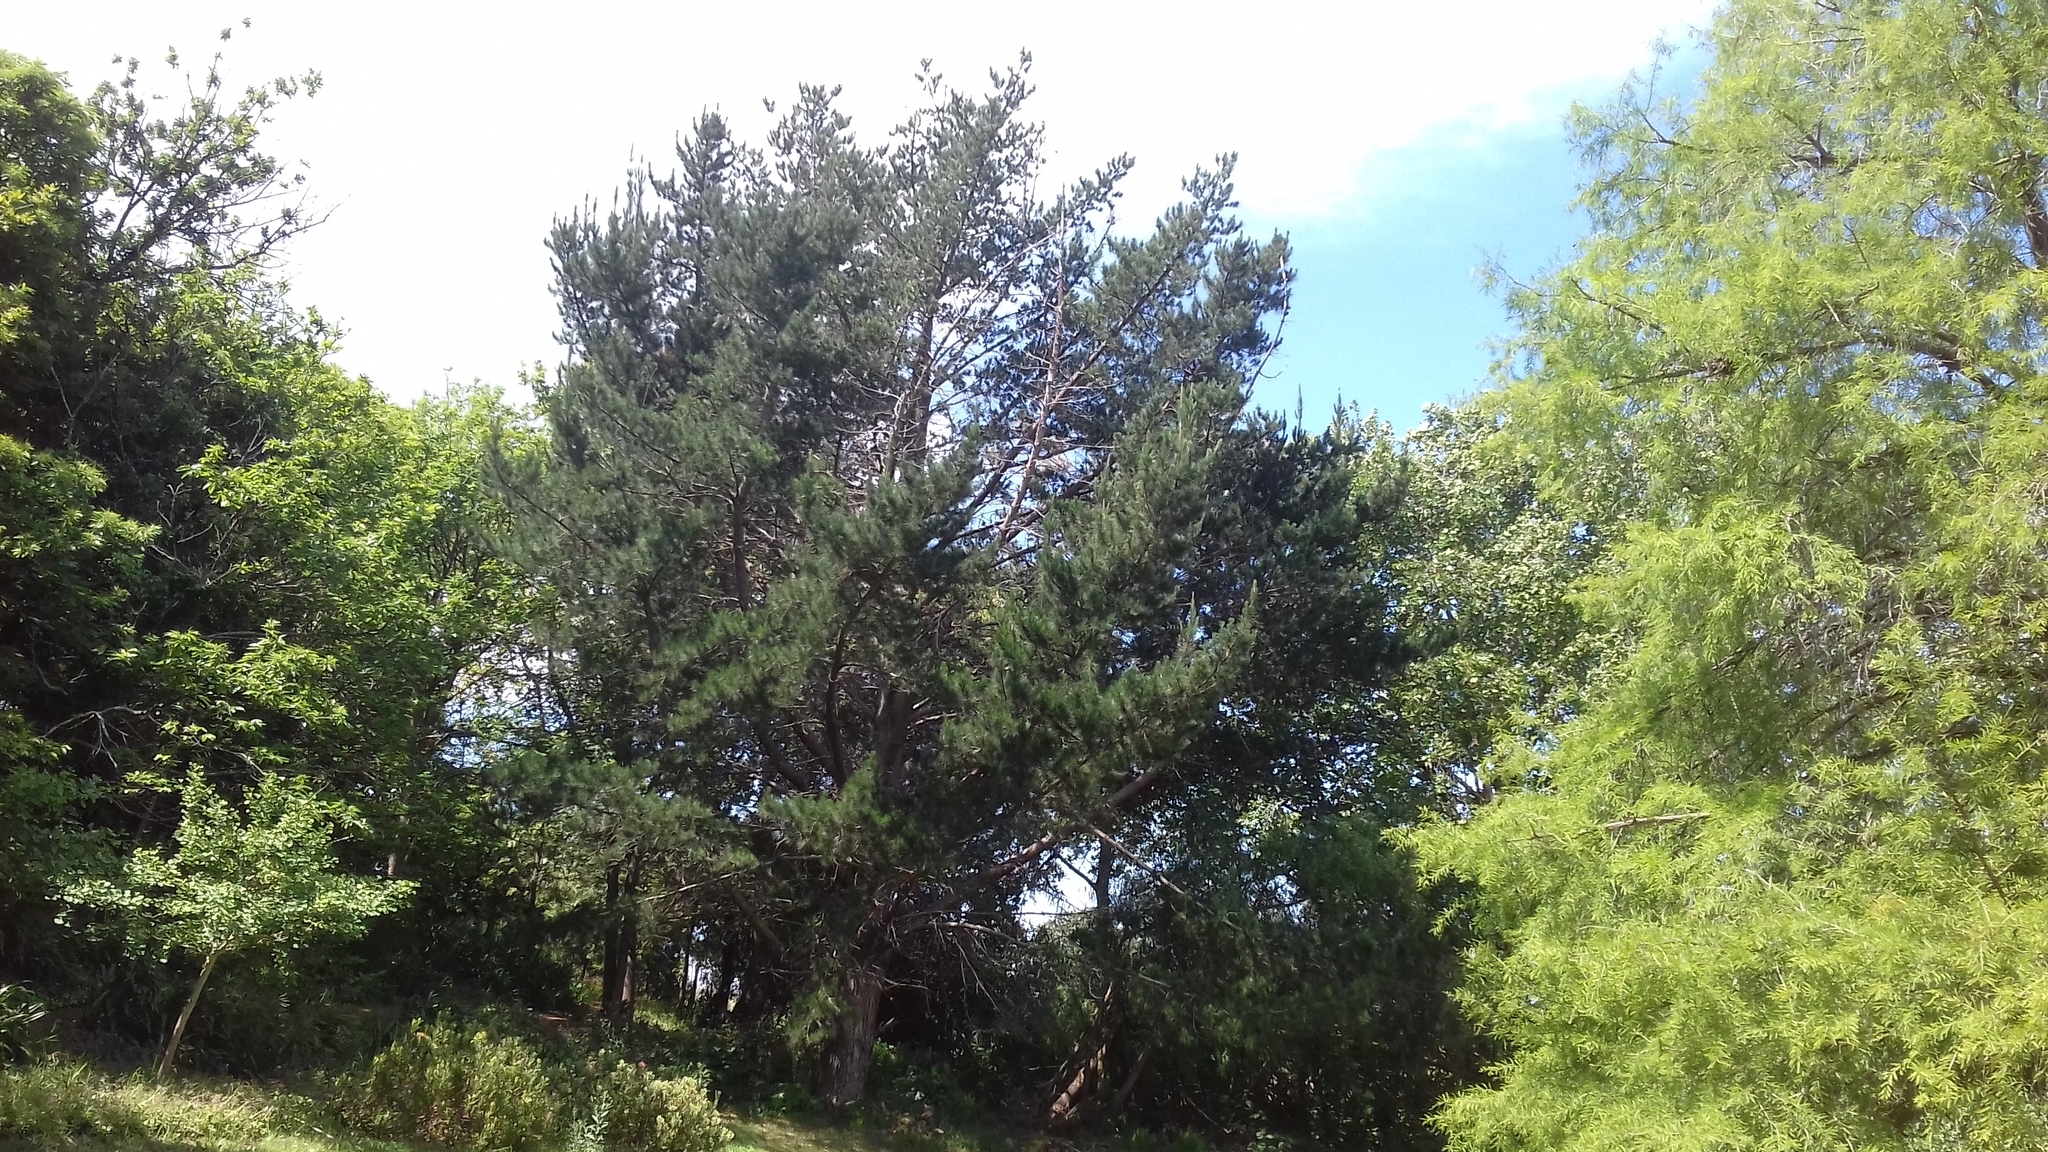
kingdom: Plantae
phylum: Tracheophyta
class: Pinopsida
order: Pinales
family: Pinaceae
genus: Pinus
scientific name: Pinus radiata
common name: Monterey pine
